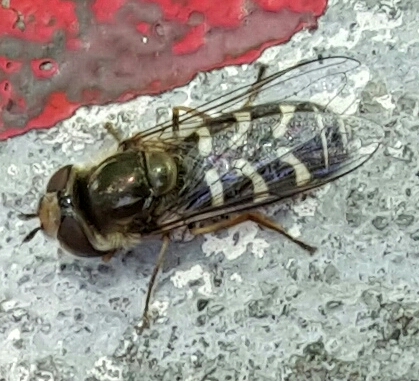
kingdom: Animalia
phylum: Arthropoda
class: Insecta
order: Diptera
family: Syrphidae
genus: Scaeva
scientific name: Scaeva affinis
